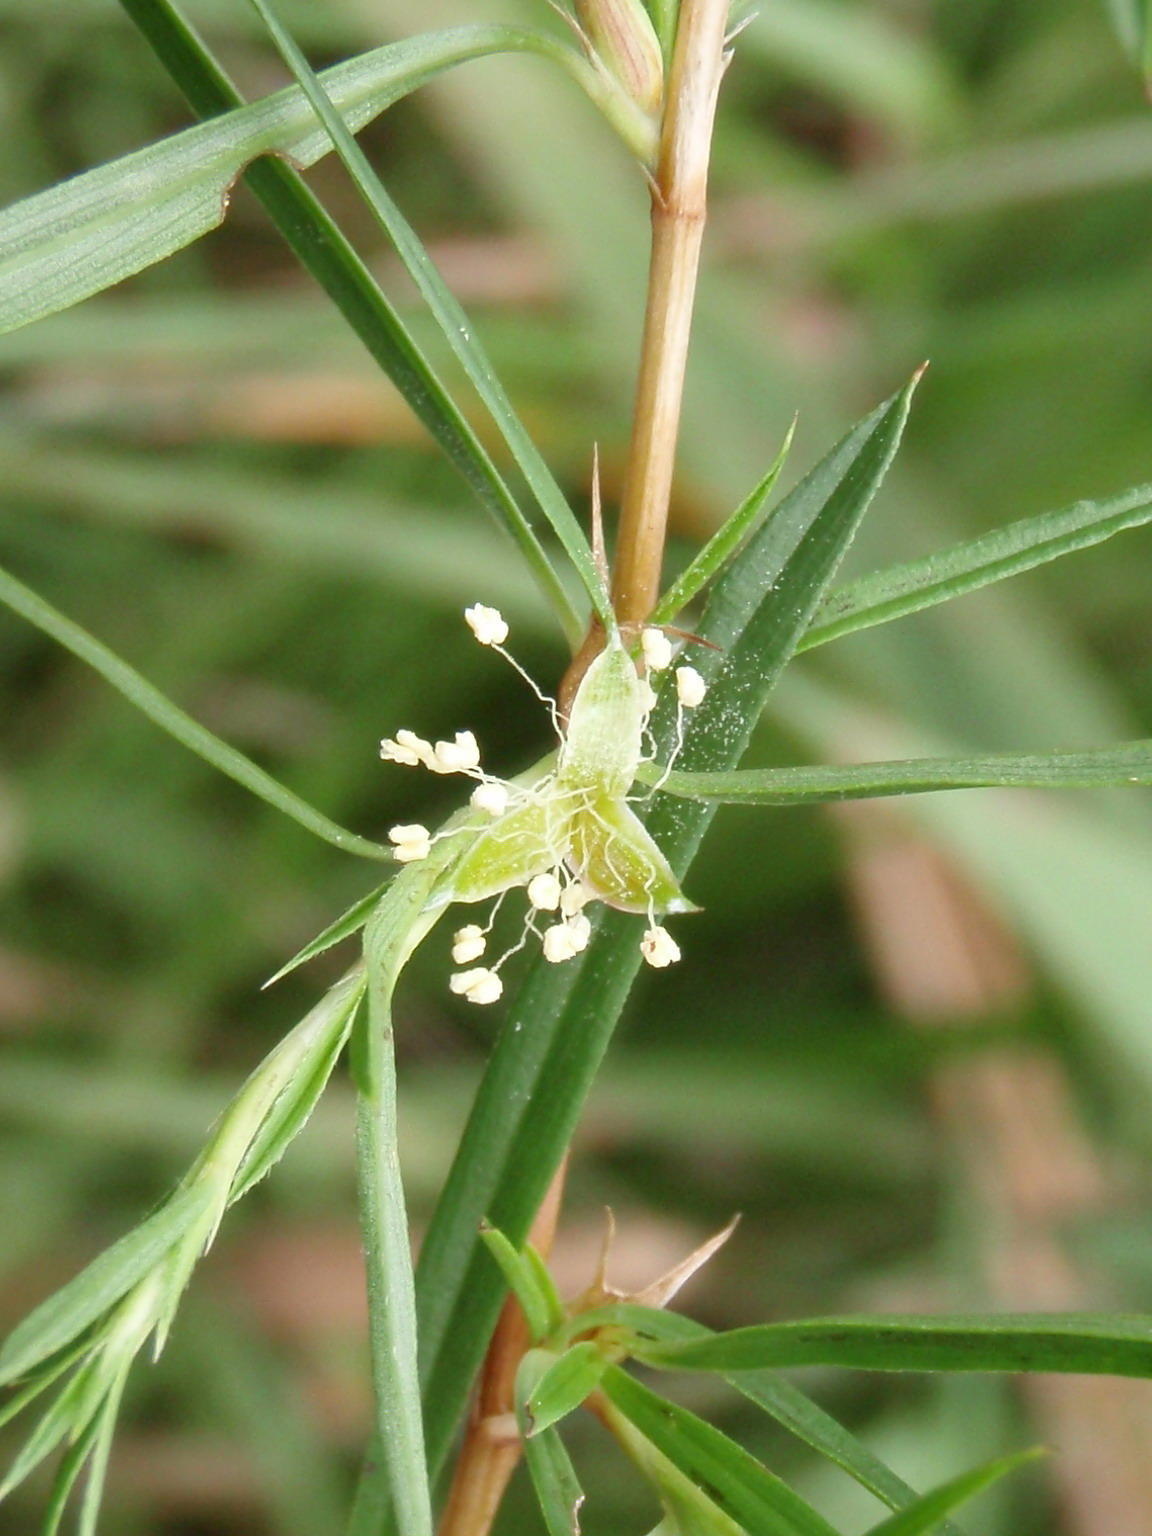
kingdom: Plantae
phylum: Tracheophyta
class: Magnoliopsida
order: Rosales
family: Rosaceae
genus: Cliffortia
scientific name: Cliffortia strobilifera
